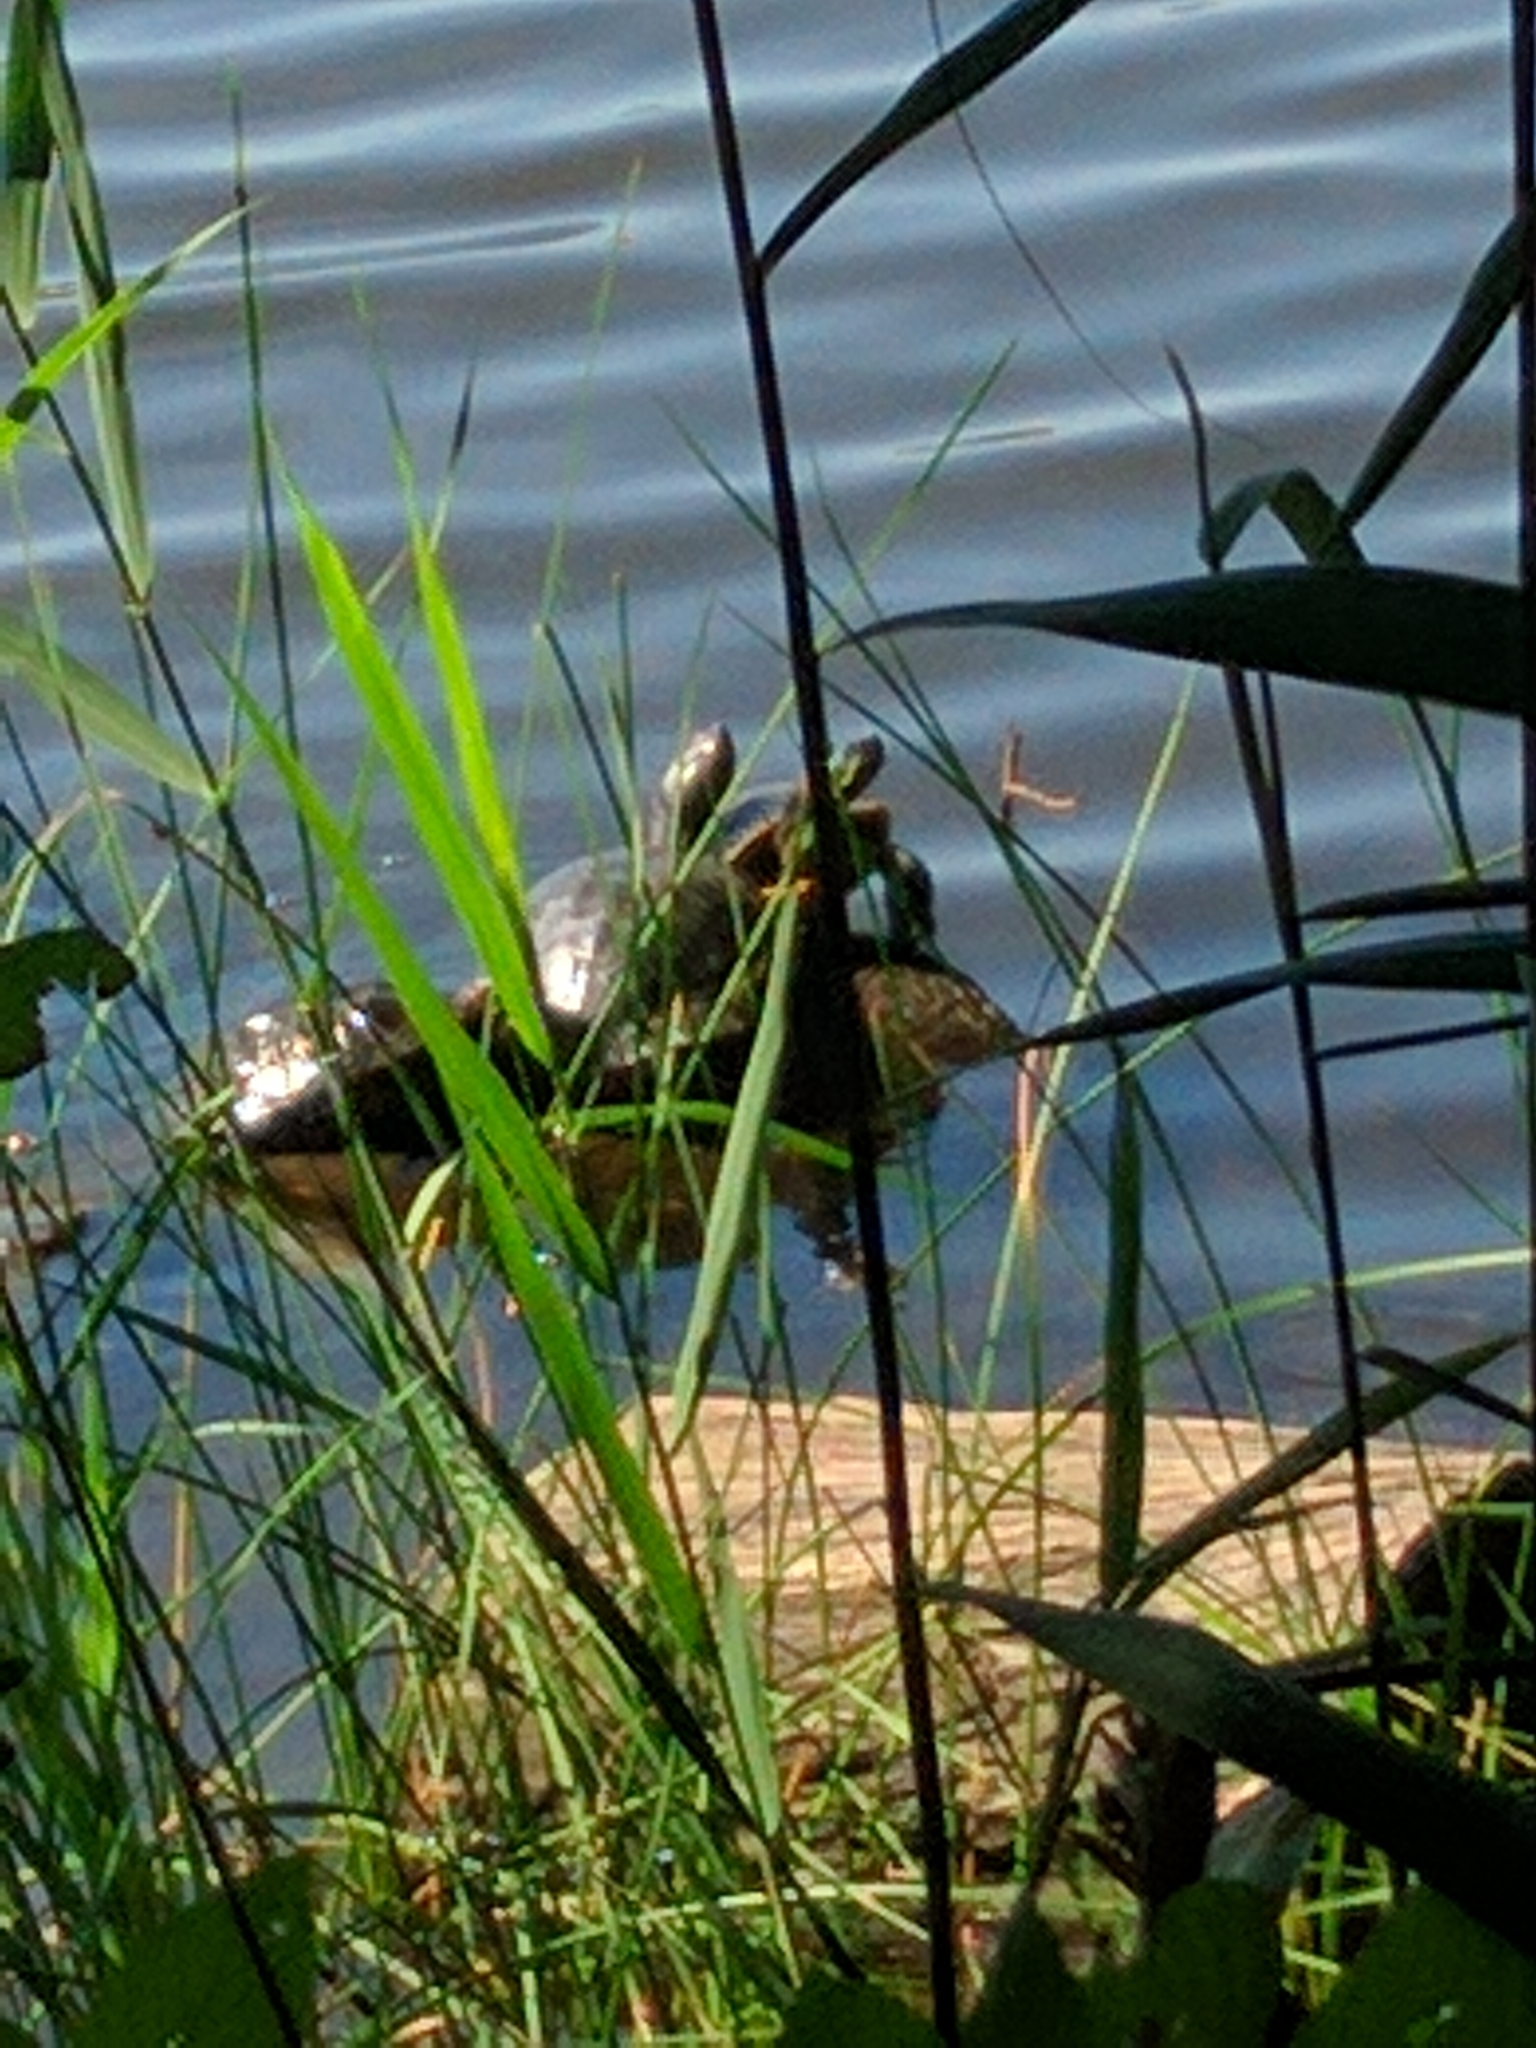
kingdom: Animalia
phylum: Chordata
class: Testudines
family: Emydidae
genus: Trachemys
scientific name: Trachemys scripta
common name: Slider
